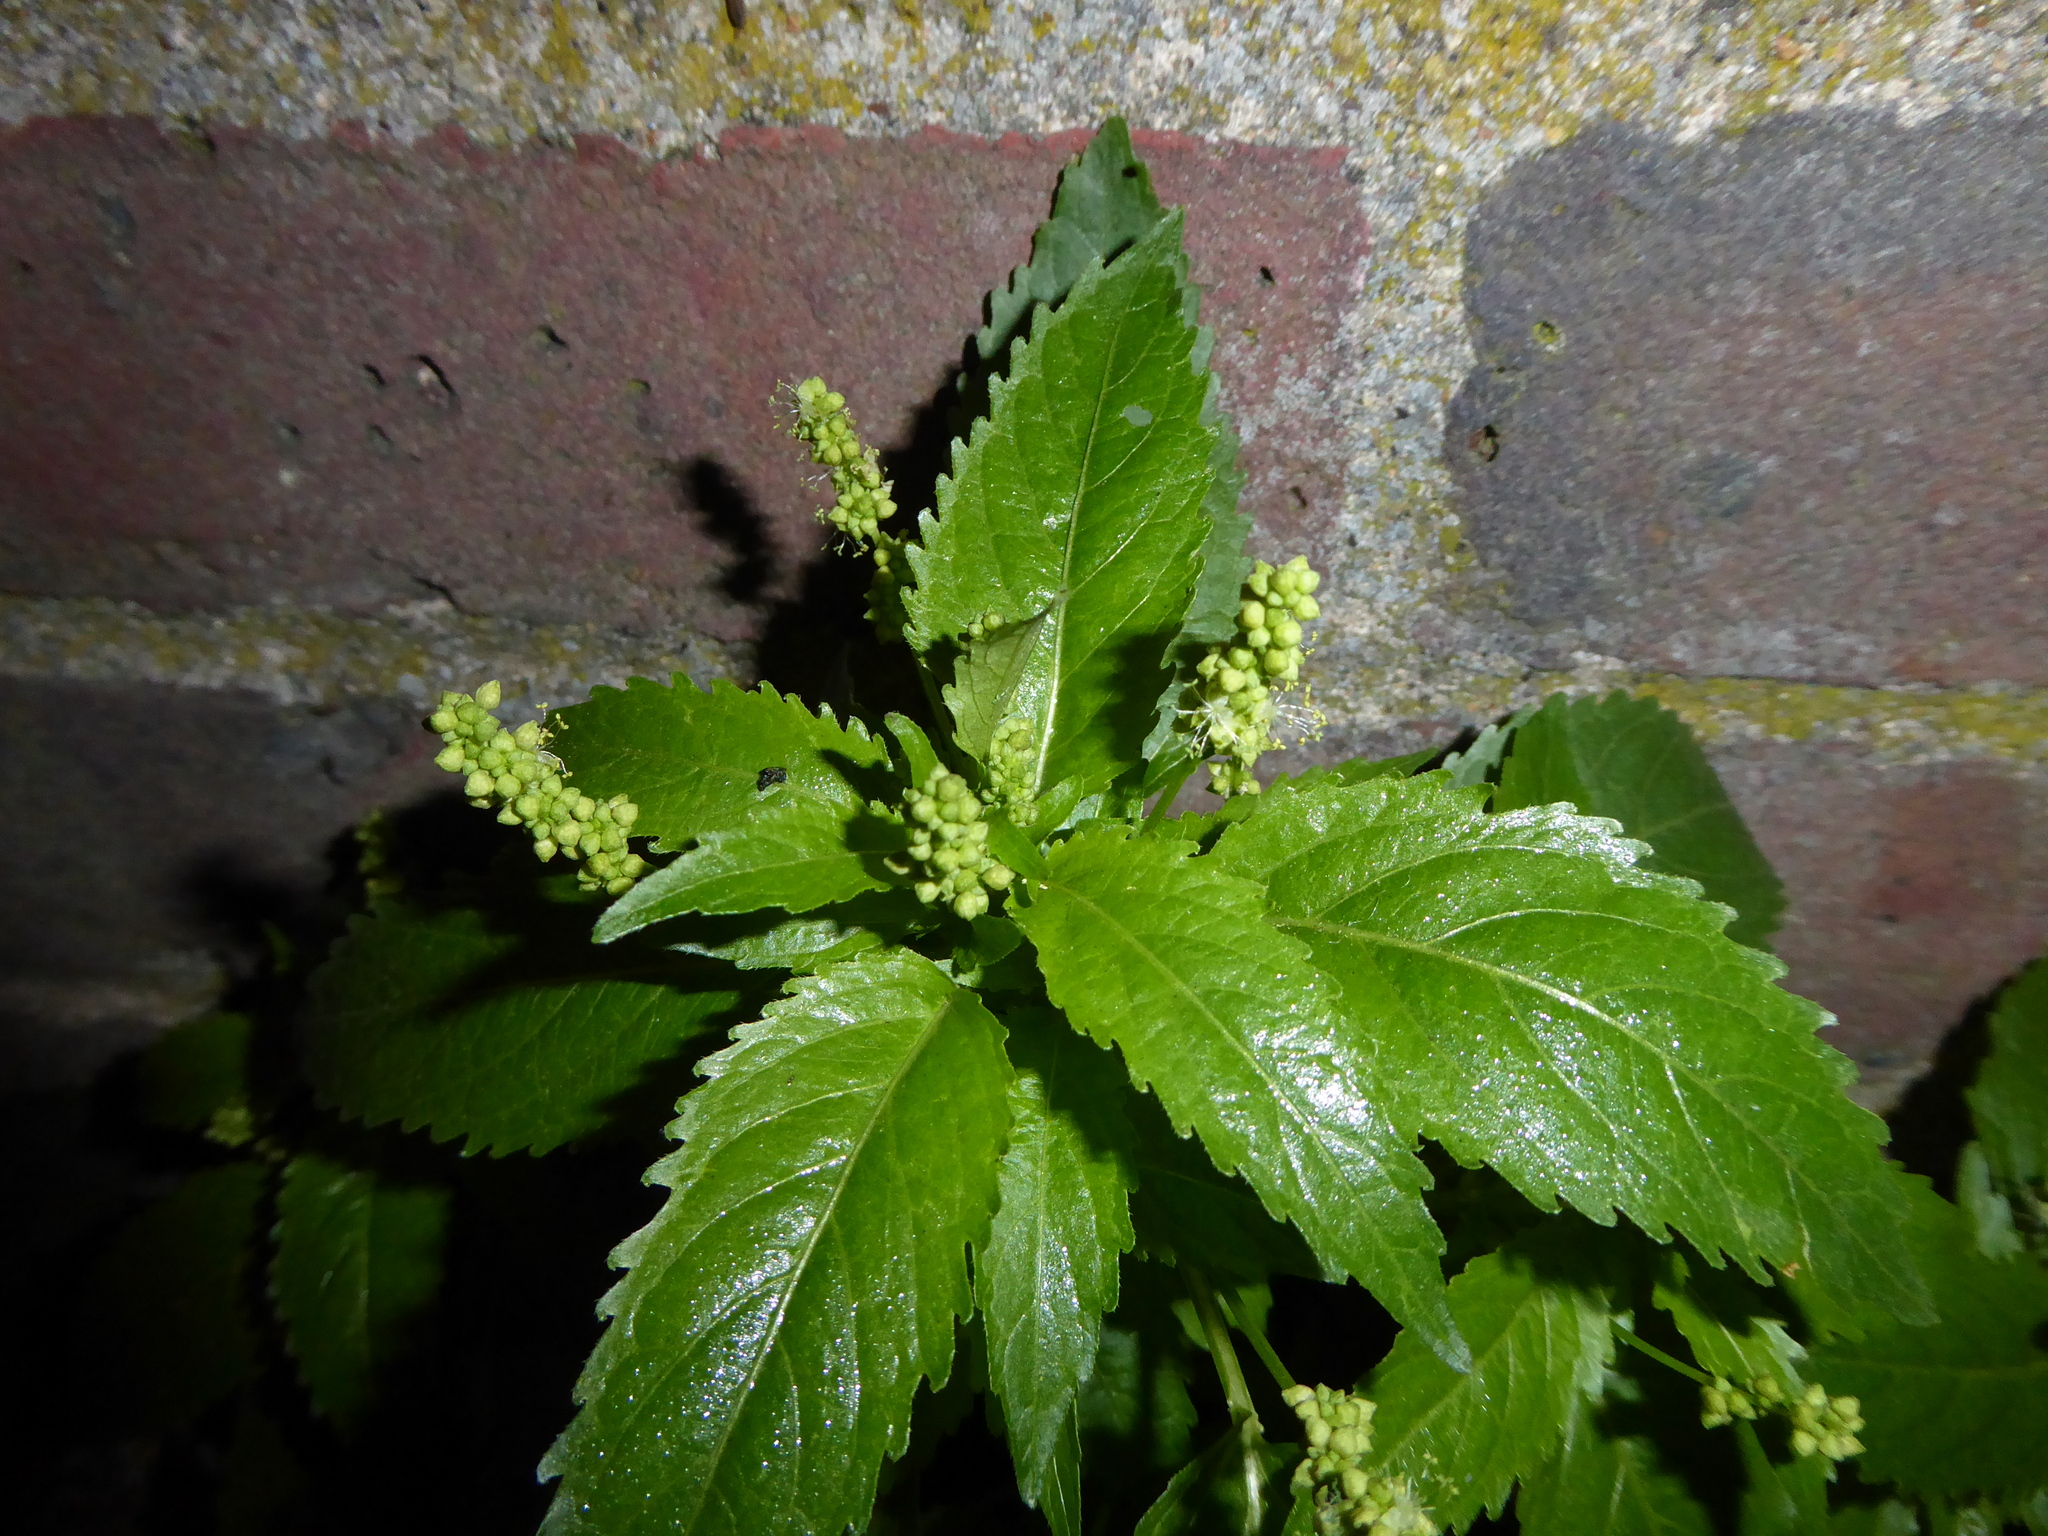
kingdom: Plantae
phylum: Tracheophyta
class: Magnoliopsida
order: Malpighiales
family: Euphorbiaceae
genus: Mercurialis
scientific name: Mercurialis annua
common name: Annual mercury
